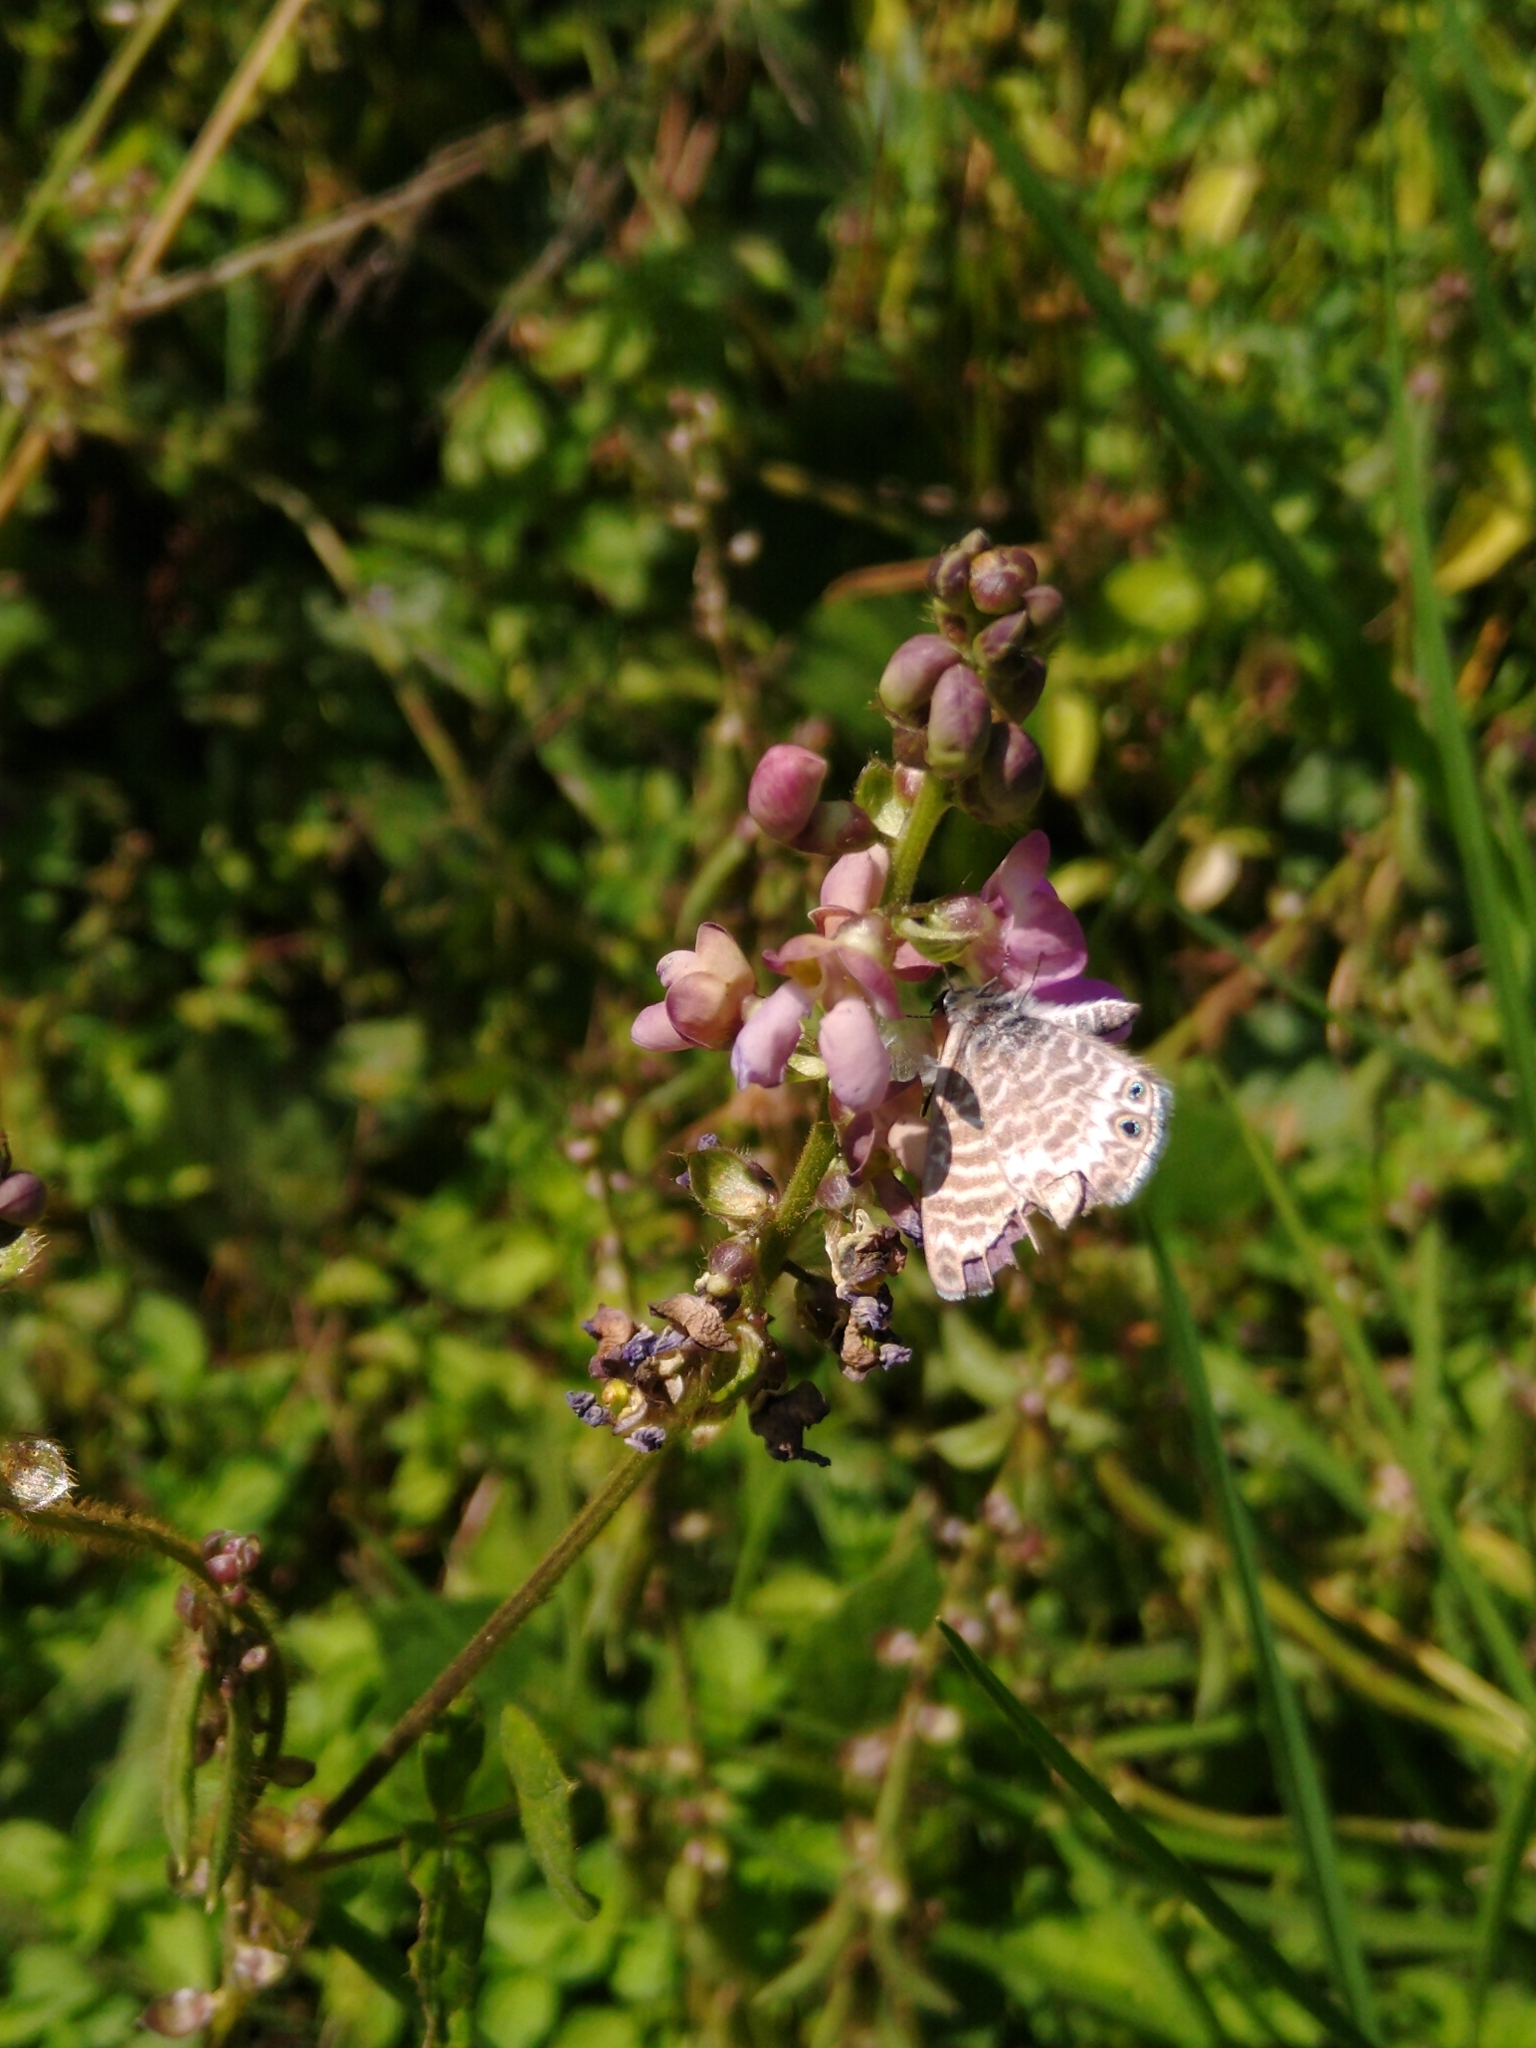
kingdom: Animalia
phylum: Arthropoda
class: Insecta
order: Lepidoptera
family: Lycaenidae
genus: Leptotes
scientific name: Leptotes marina
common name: Marine blue
